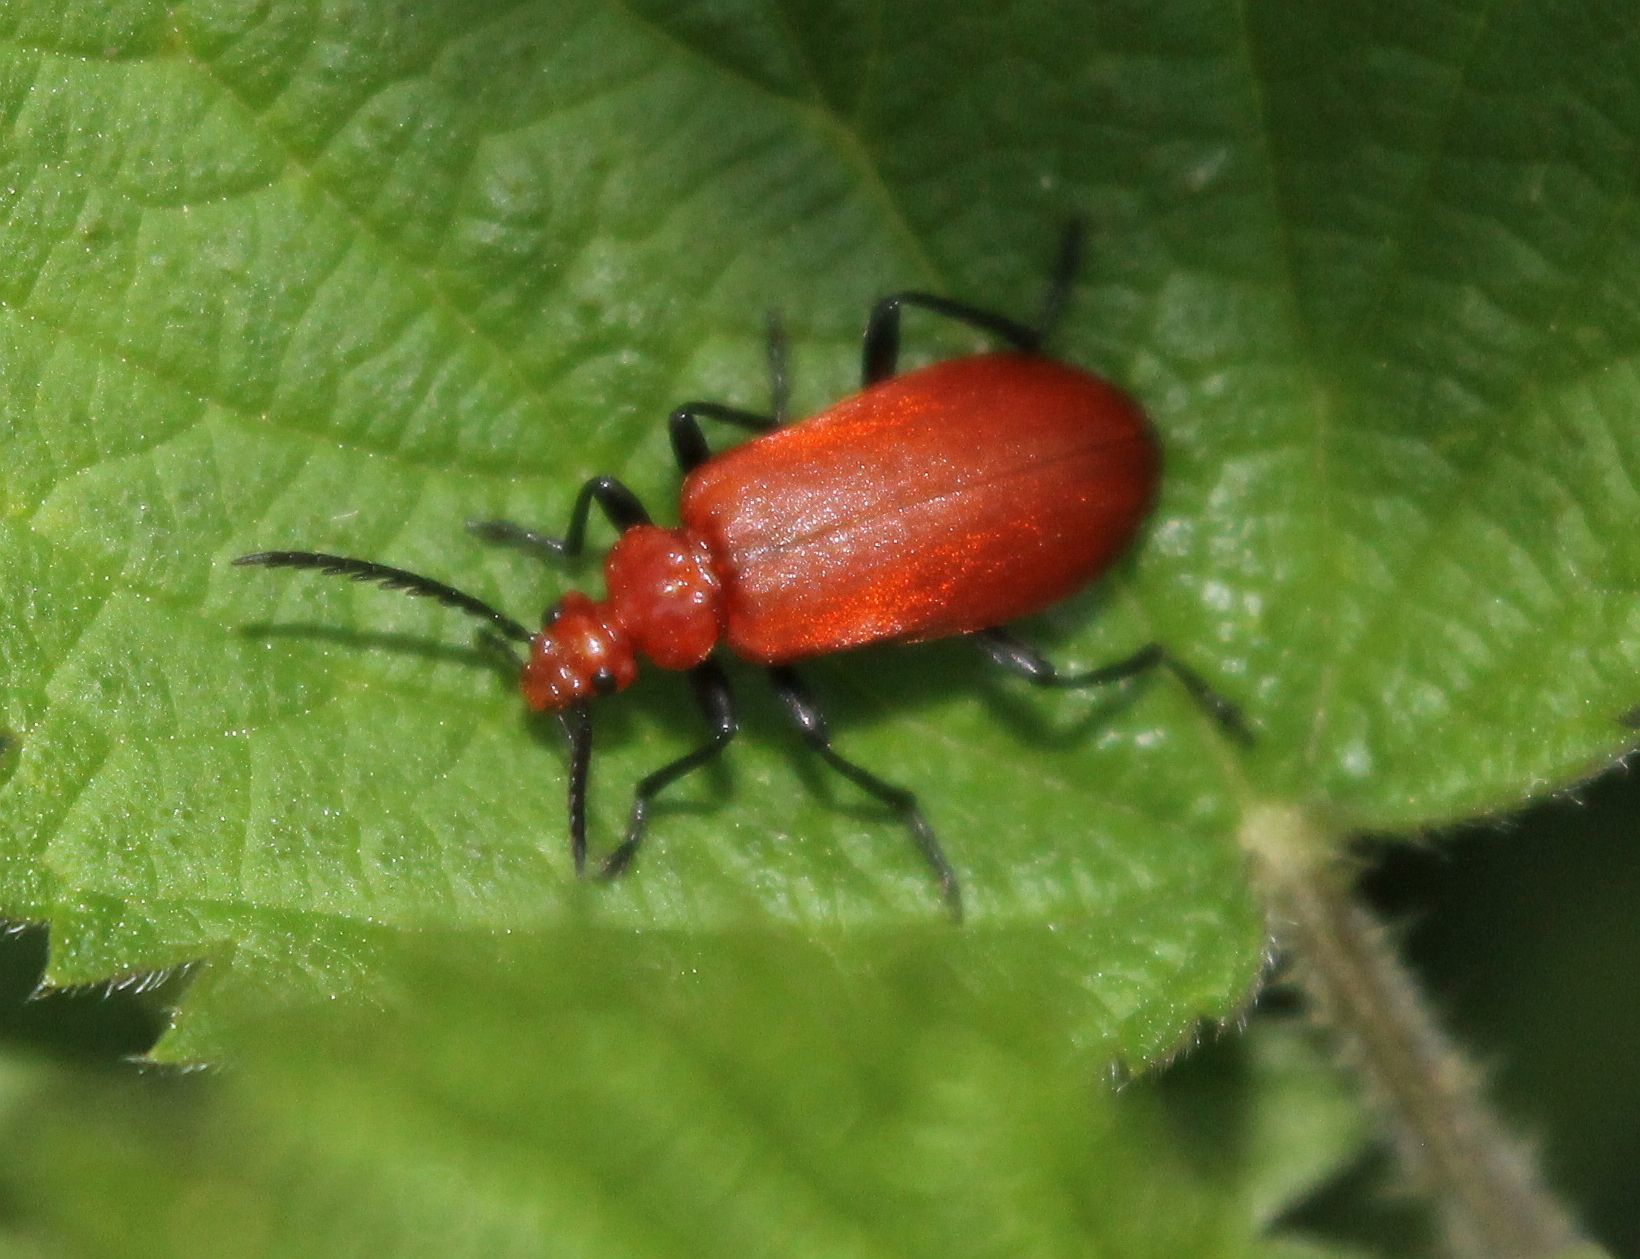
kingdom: Animalia
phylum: Arthropoda
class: Insecta
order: Coleoptera
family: Pyrochroidae
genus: Pyrochroa
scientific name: Pyrochroa serraticornis
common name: Red-headed cardinal beetle
